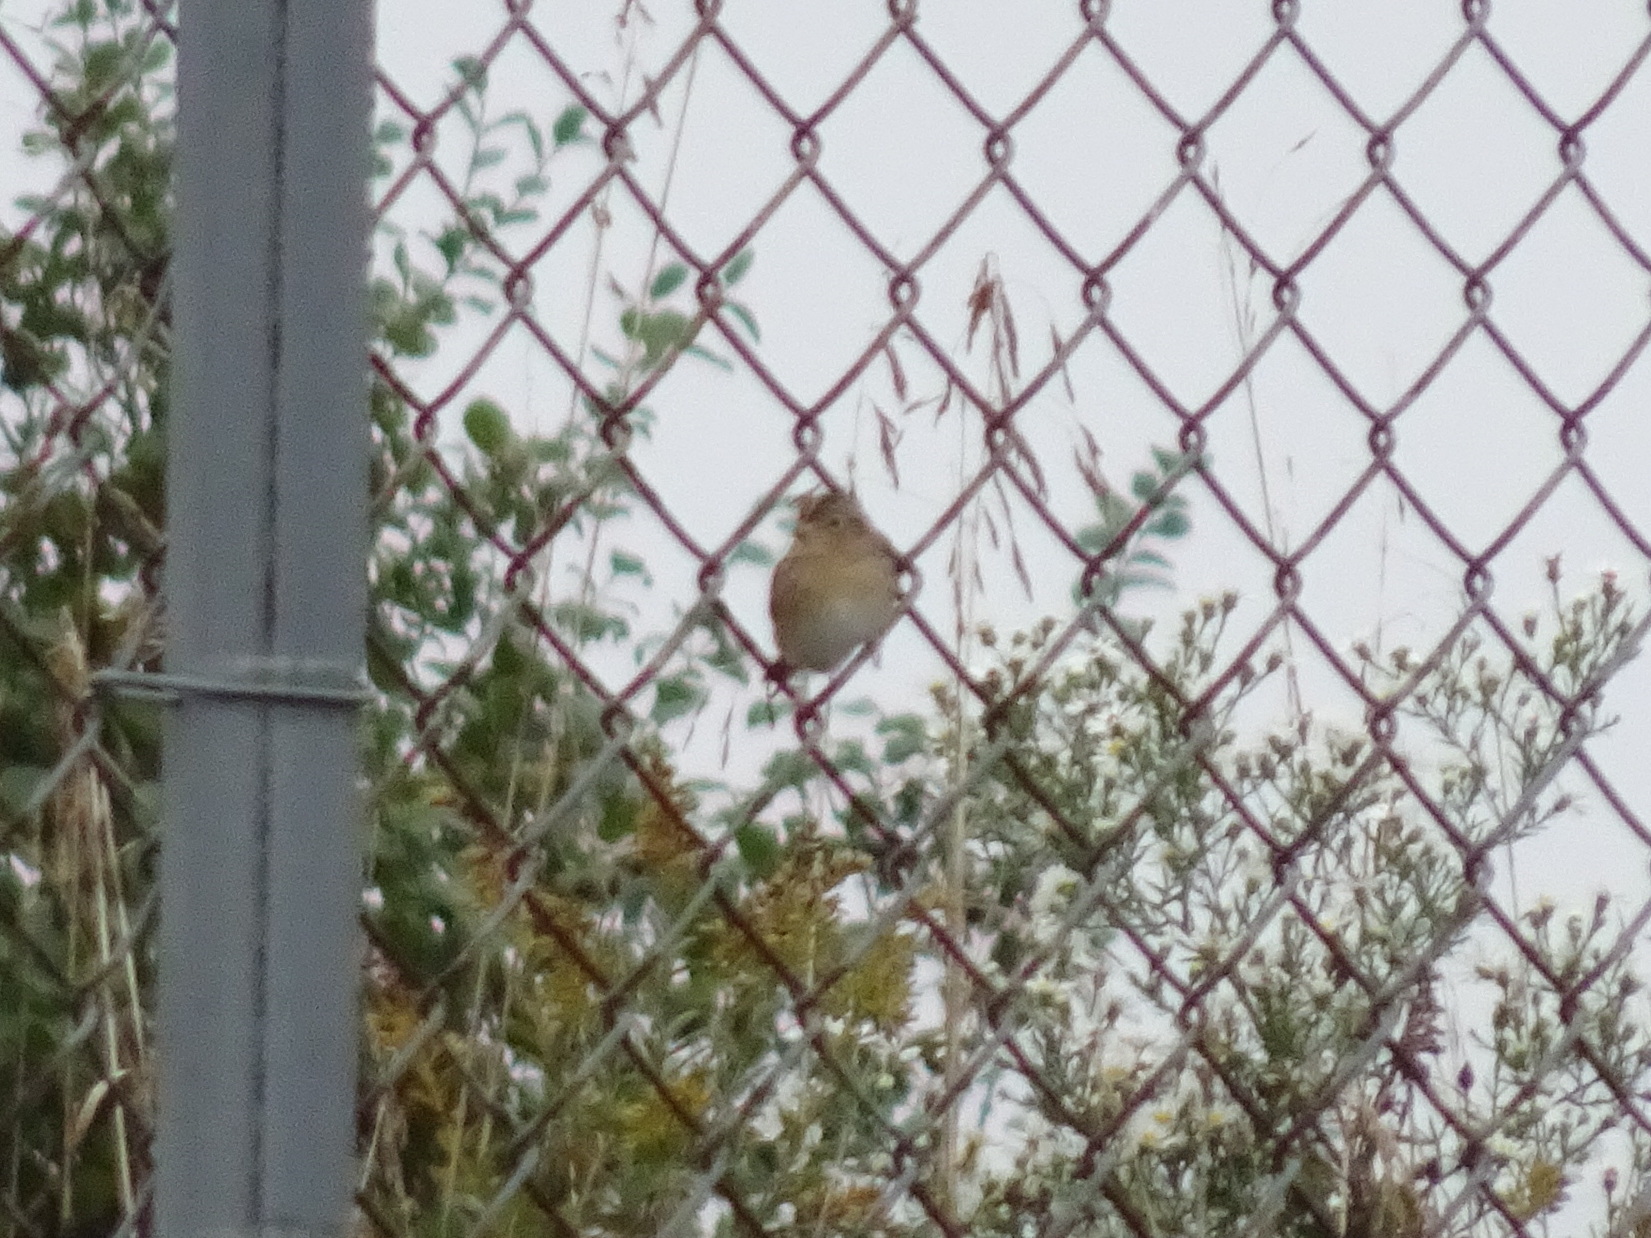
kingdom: Animalia
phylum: Chordata
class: Aves
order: Passeriformes
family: Passerellidae
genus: Ammodramus
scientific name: Ammodramus savannarum
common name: Grasshopper sparrow
